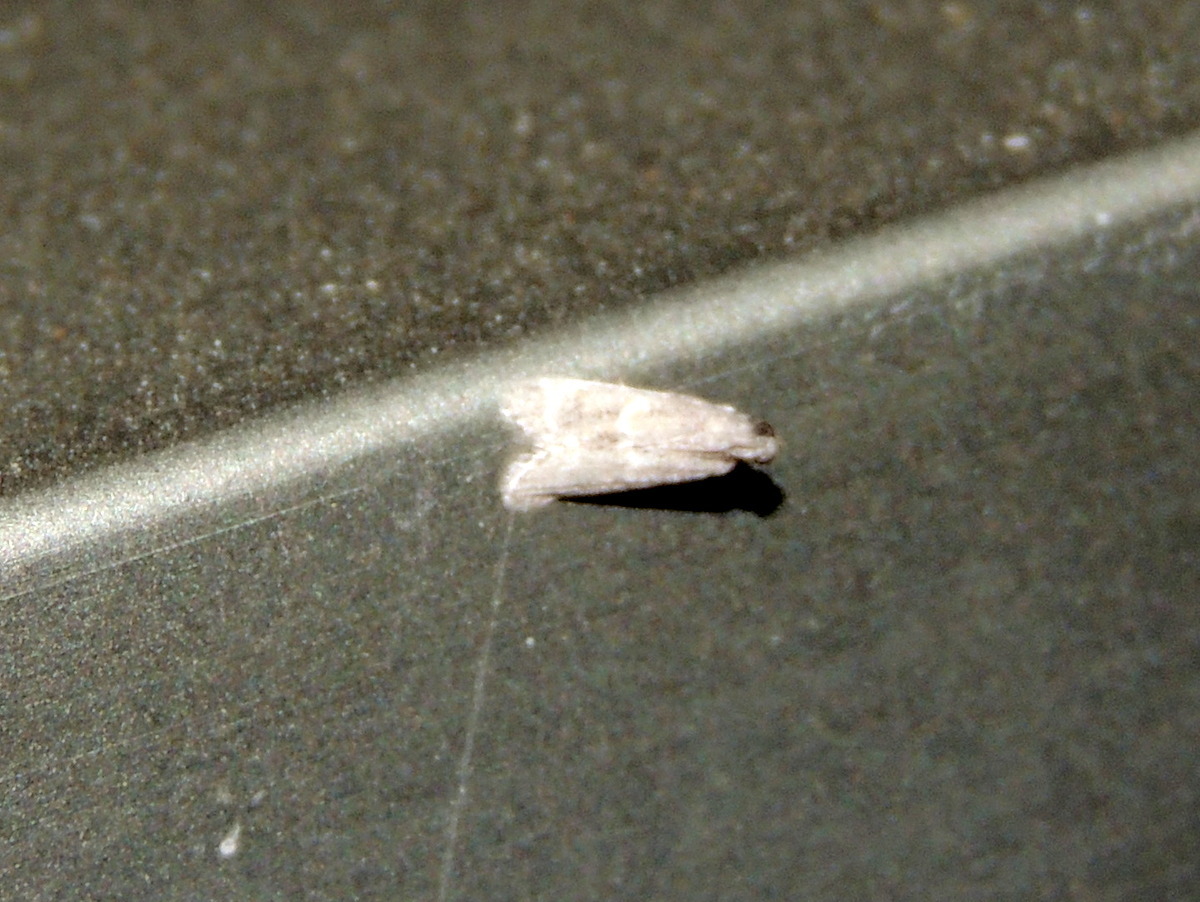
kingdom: Animalia
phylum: Arthropoda
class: Insecta
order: Lepidoptera
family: Pyralidae
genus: Ectomyelois
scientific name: Ectomyelois ceratoniae
